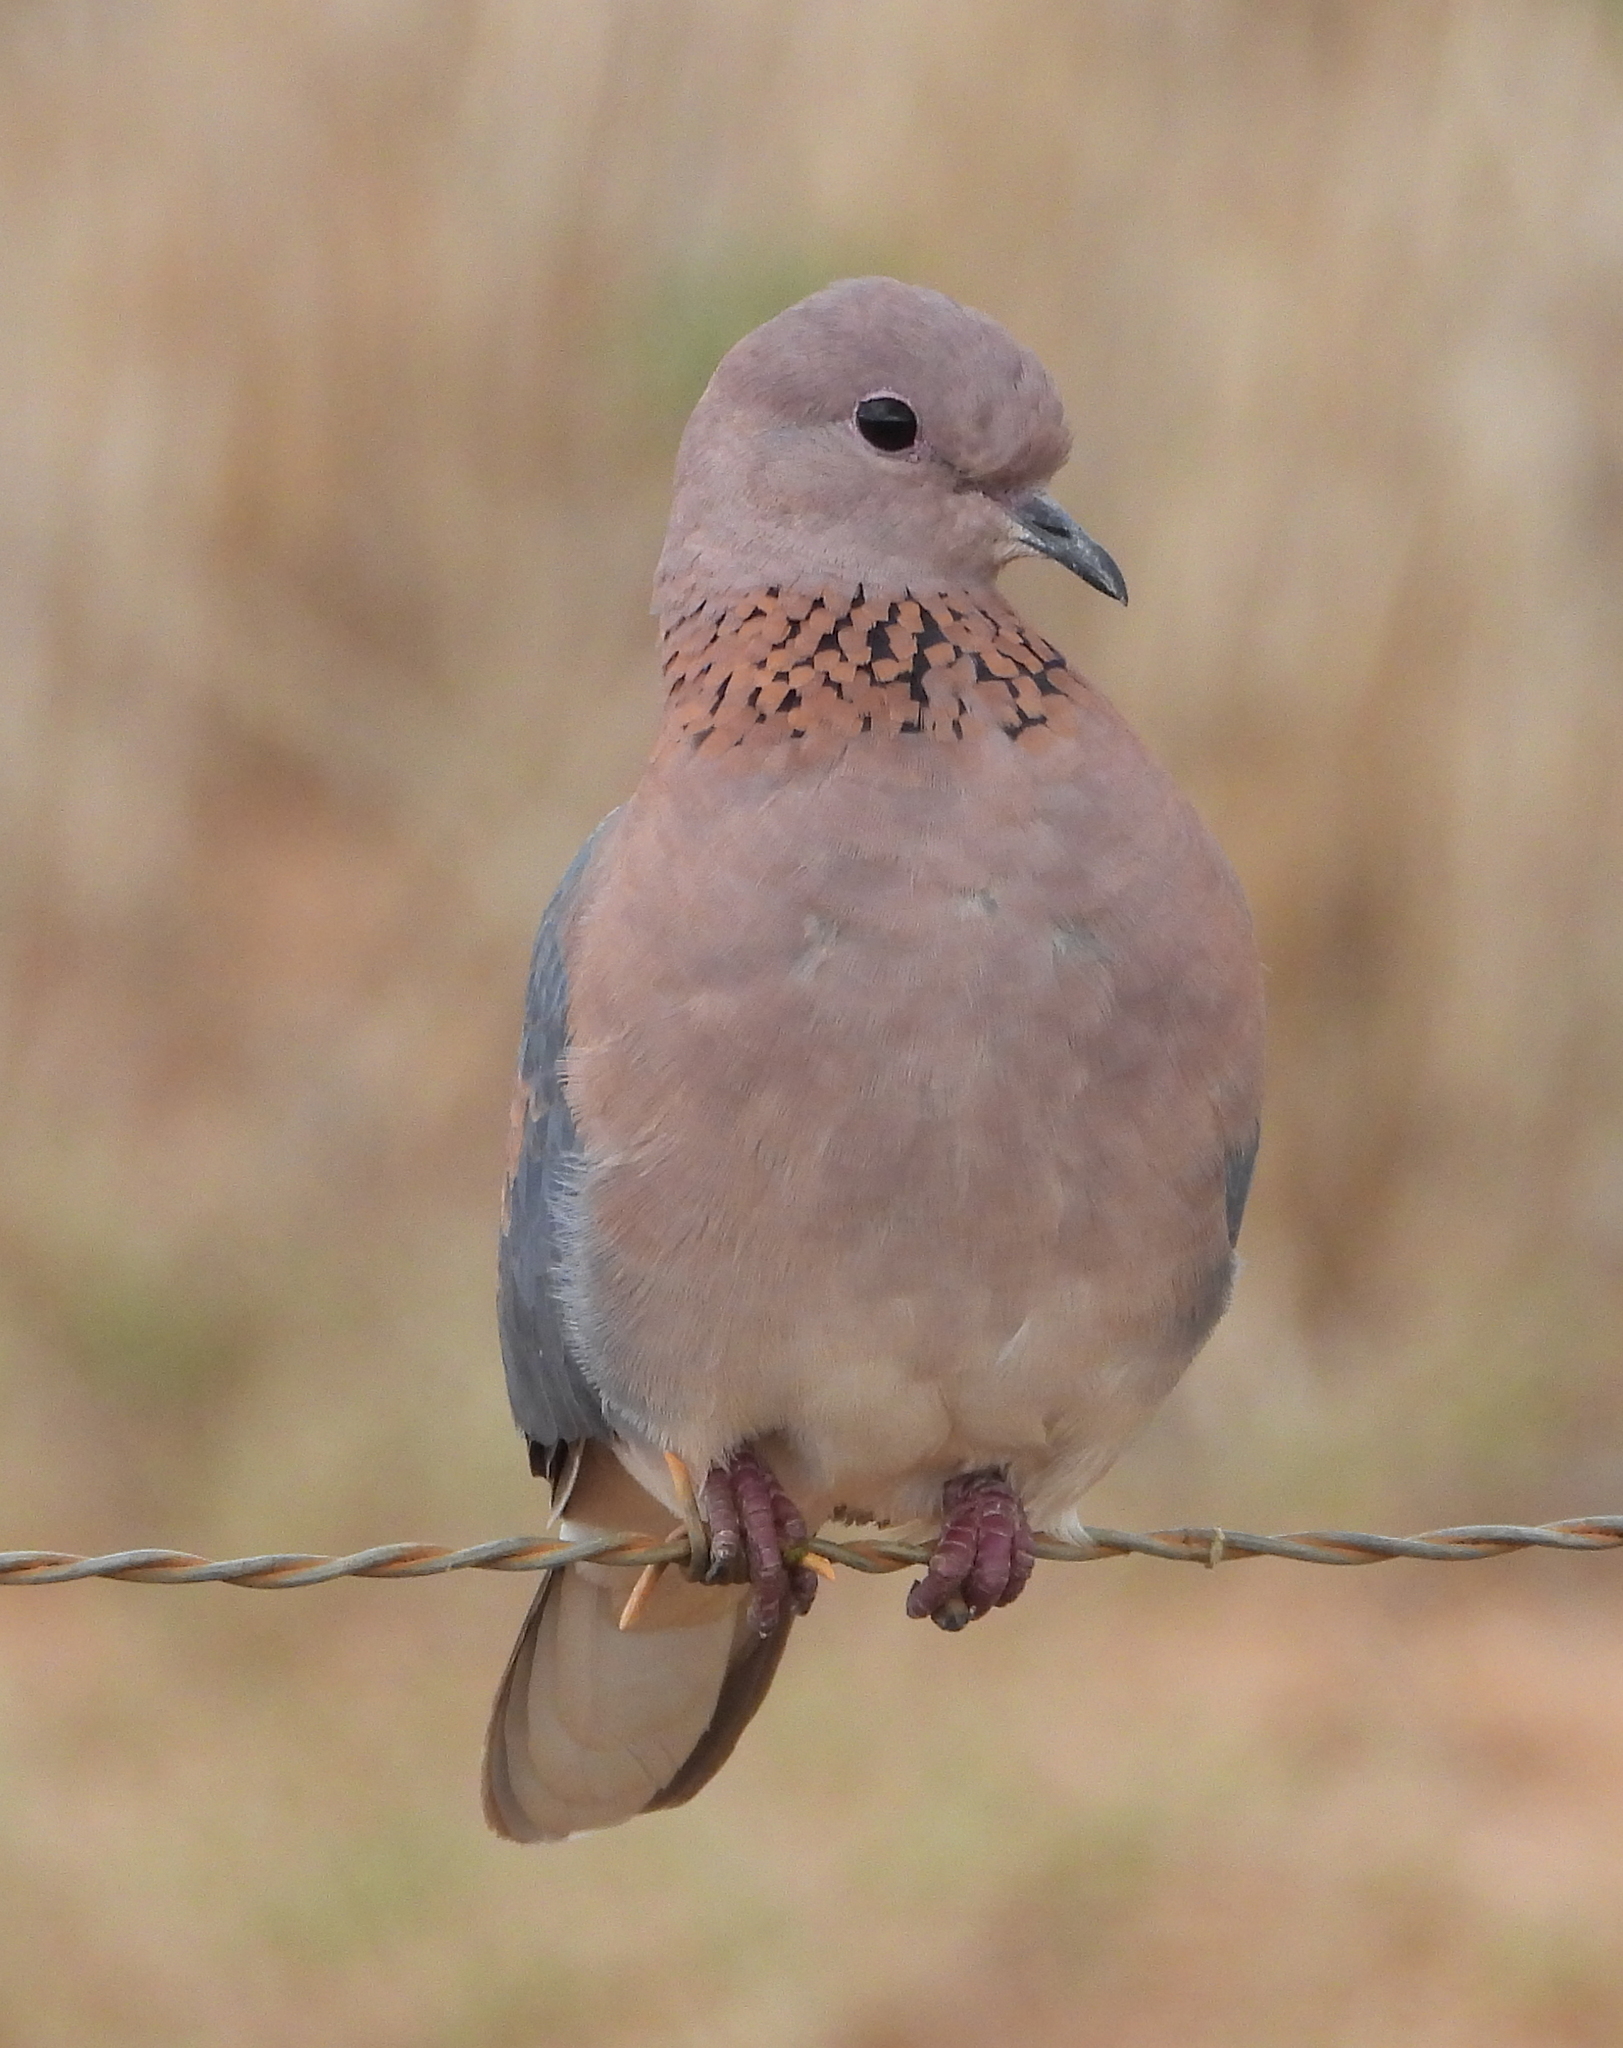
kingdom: Animalia
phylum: Chordata
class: Aves
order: Columbiformes
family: Columbidae
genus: Spilopelia
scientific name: Spilopelia senegalensis
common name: Laughing dove
